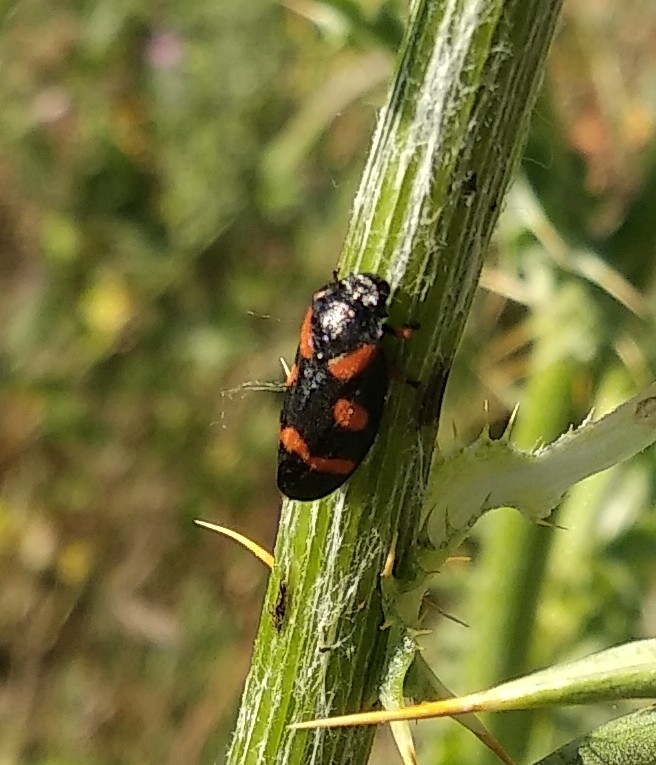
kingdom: Animalia
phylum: Arthropoda
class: Insecta
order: Hemiptera
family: Cercopidae
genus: Cercopis
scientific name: Cercopis intermedia
